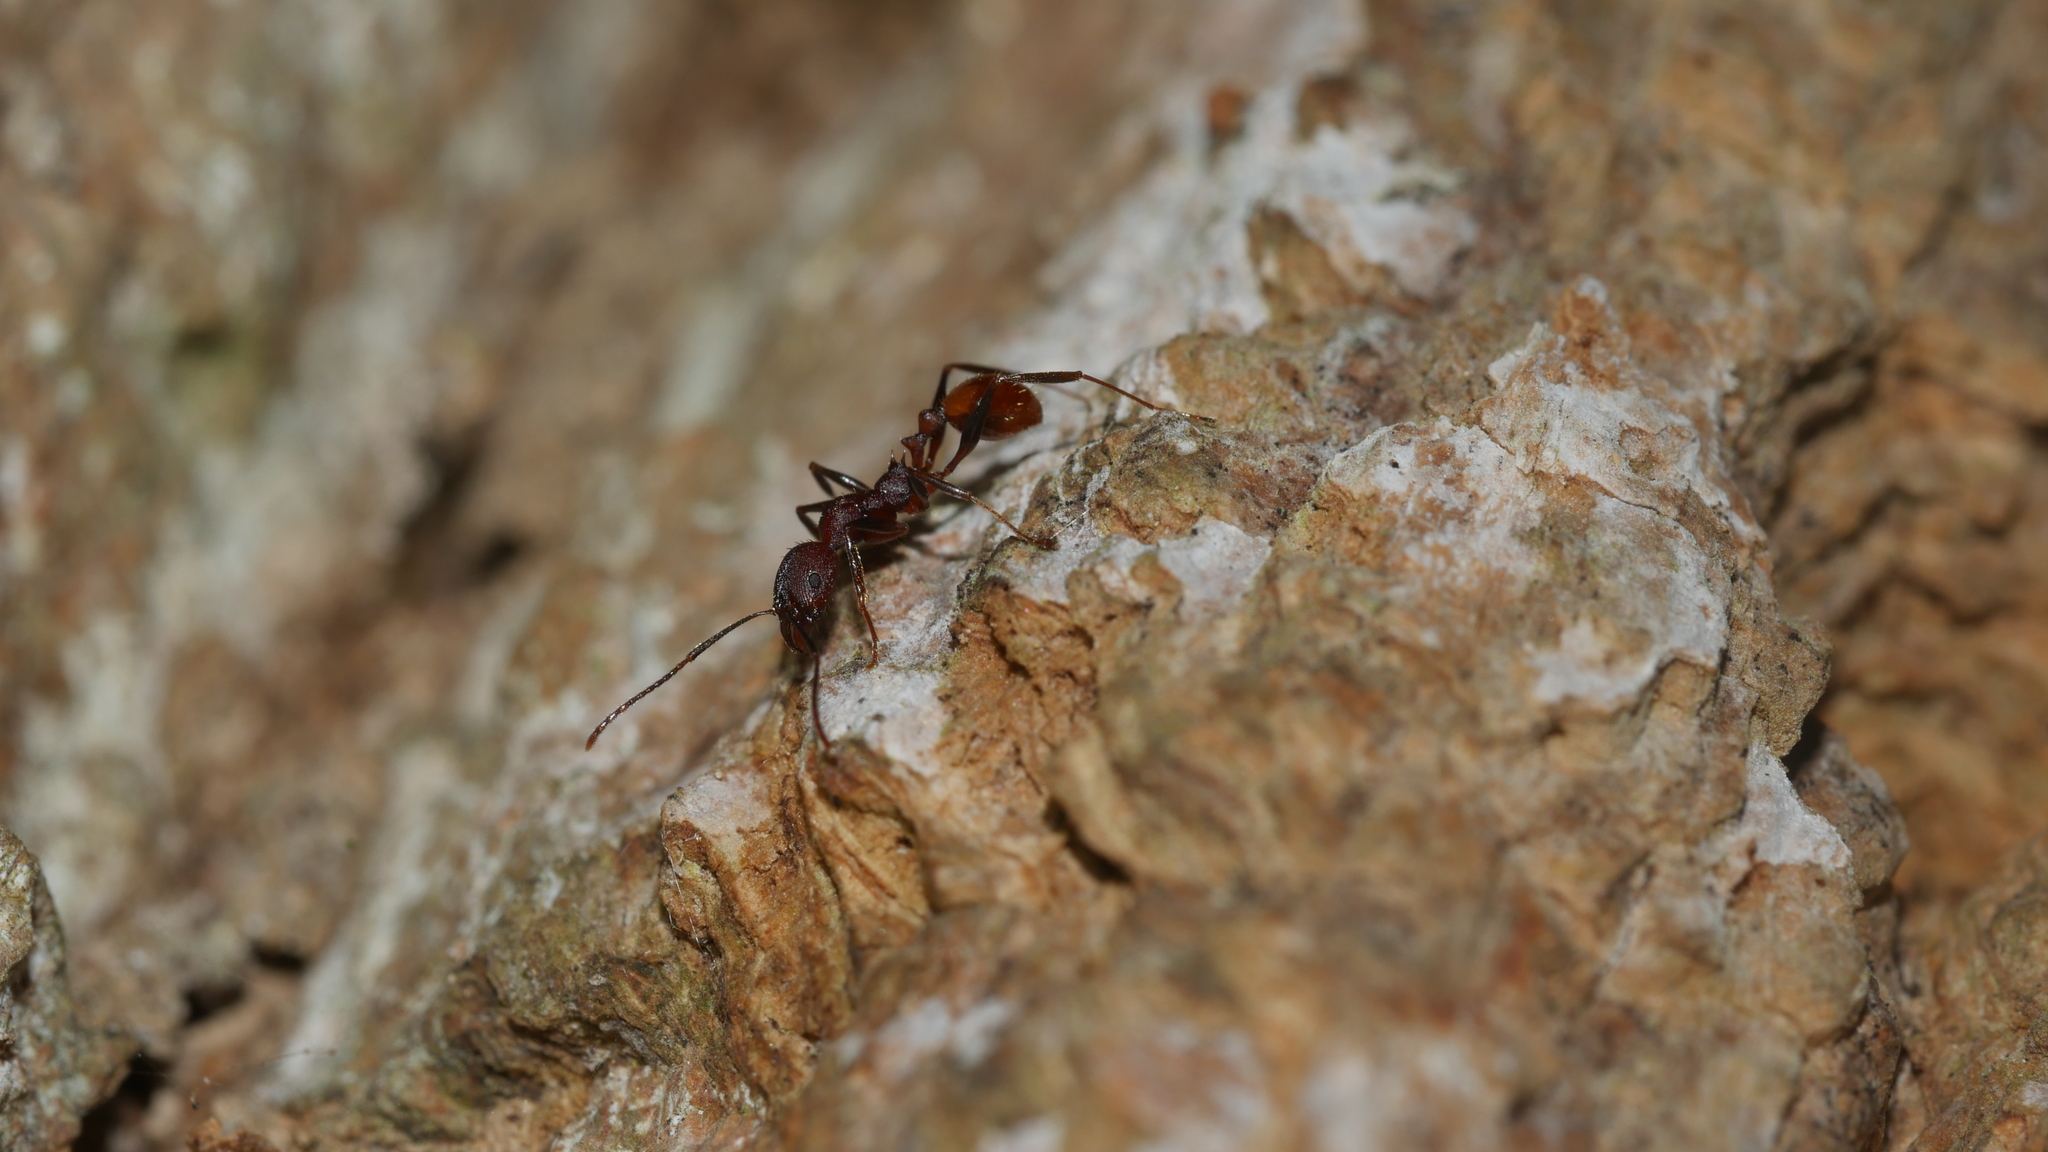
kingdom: Animalia
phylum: Arthropoda
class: Insecta
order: Hymenoptera
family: Formicidae
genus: Aphaenogaster
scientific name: Aphaenogaster lamellidens
